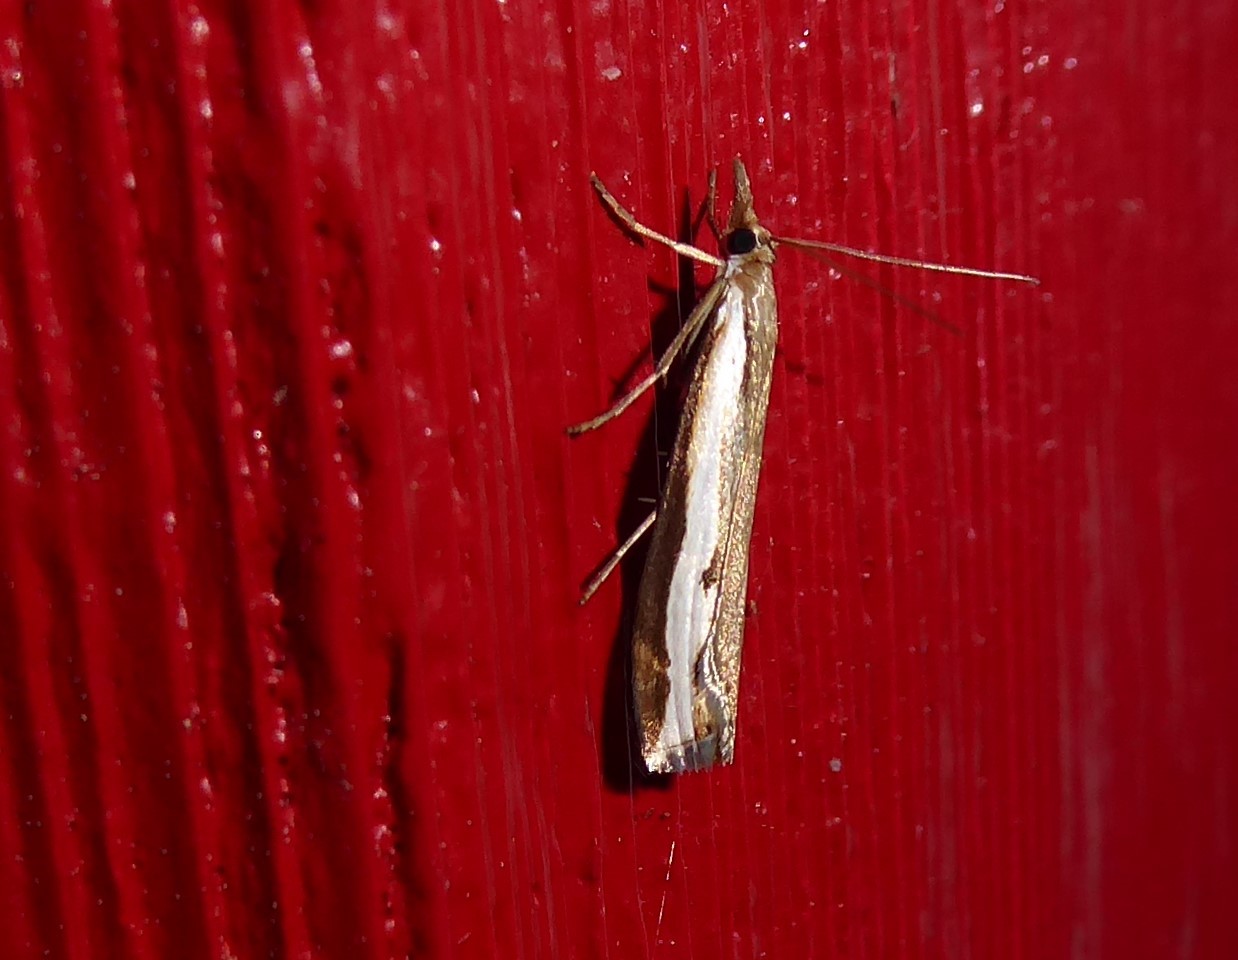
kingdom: Animalia
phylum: Arthropoda
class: Insecta
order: Lepidoptera
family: Crambidae
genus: Orocrambus
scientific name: Orocrambus flexuosellus
